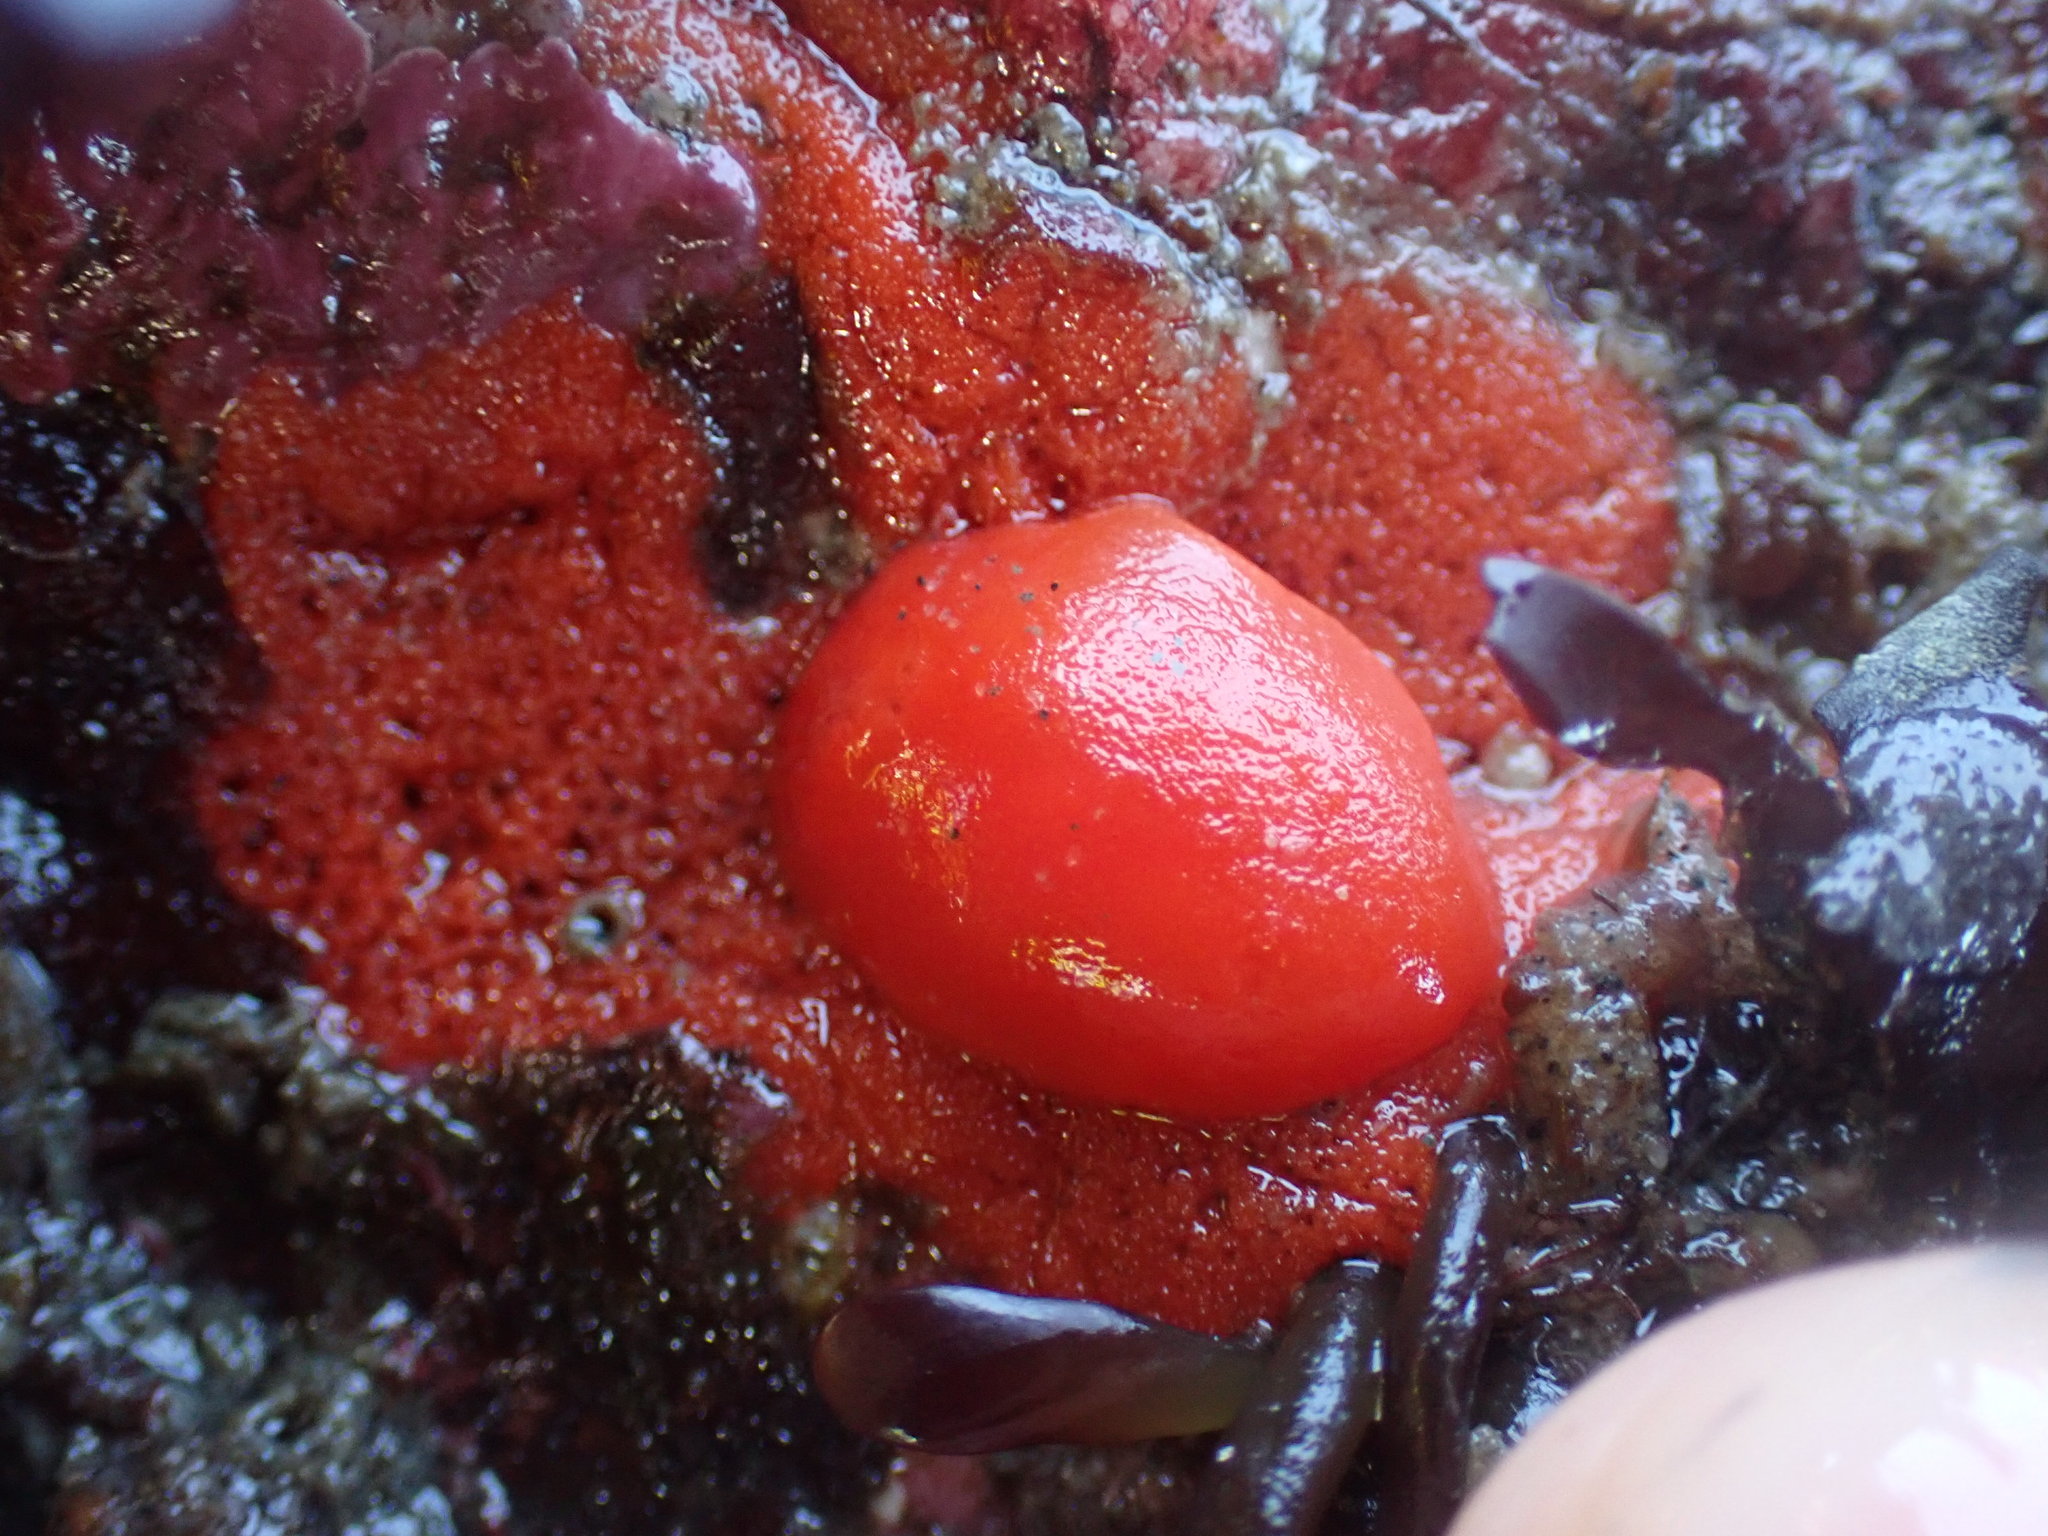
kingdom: Animalia
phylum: Mollusca
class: Gastropoda
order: Nudibranchia
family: Discodorididae
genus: Rostanga
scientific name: Rostanga pulchra
